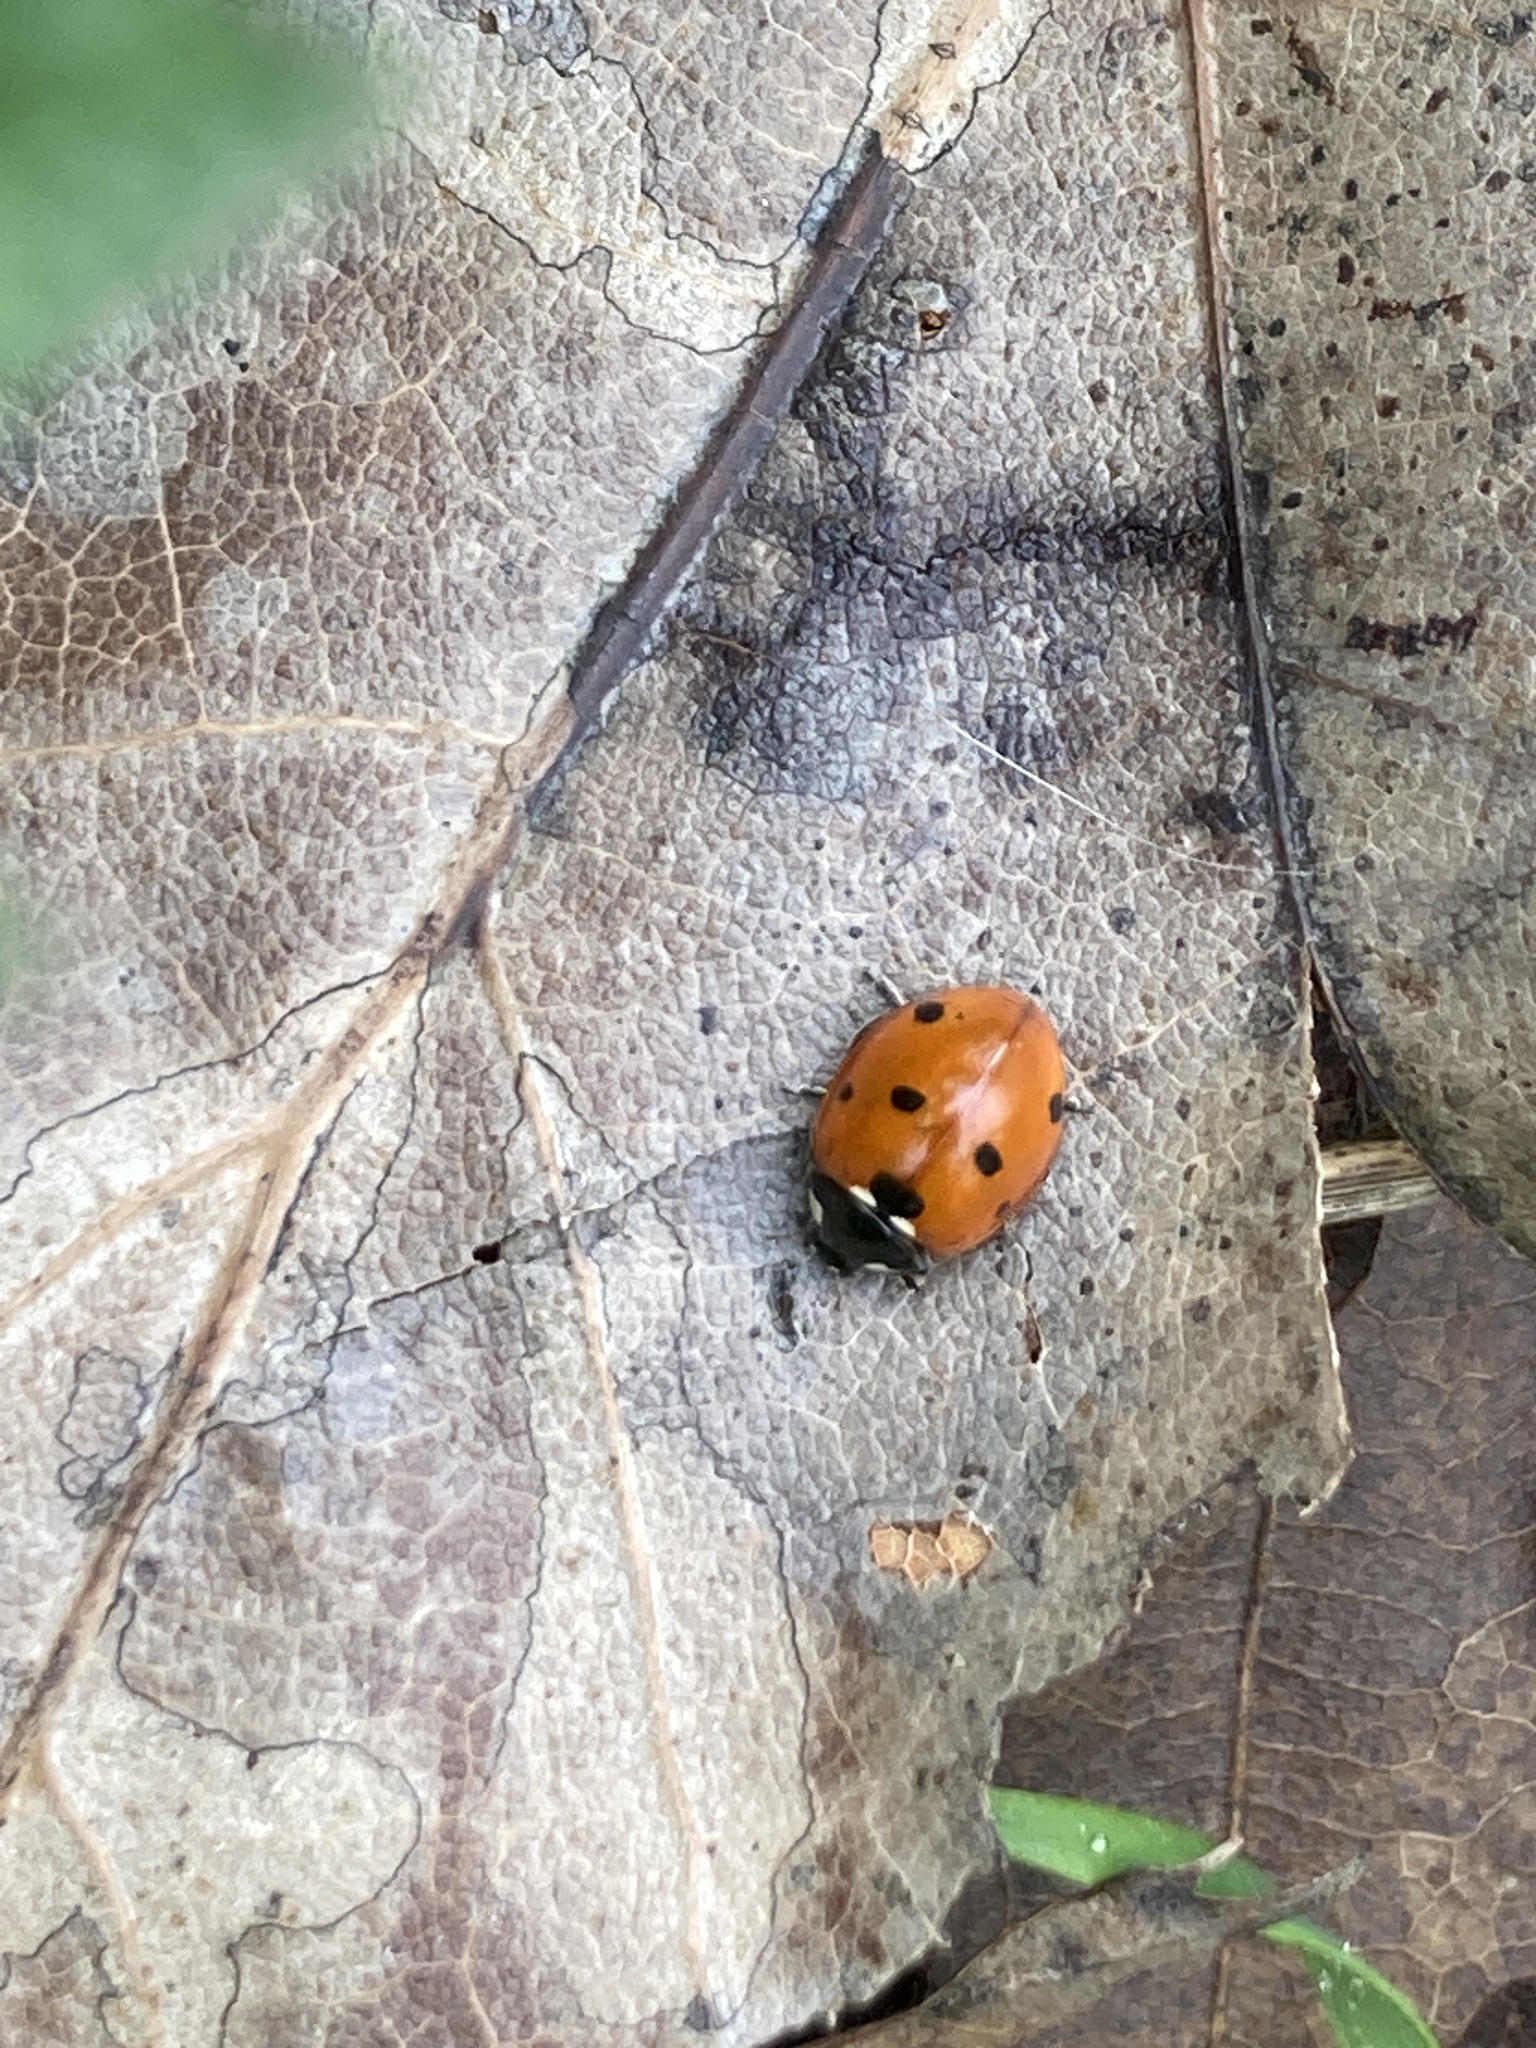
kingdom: Animalia
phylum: Arthropoda
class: Insecta
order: Coleoptera
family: Coccinellidae
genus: Coccinella
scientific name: Coccinella septempunctata
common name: Sevenspotted lady beetle
